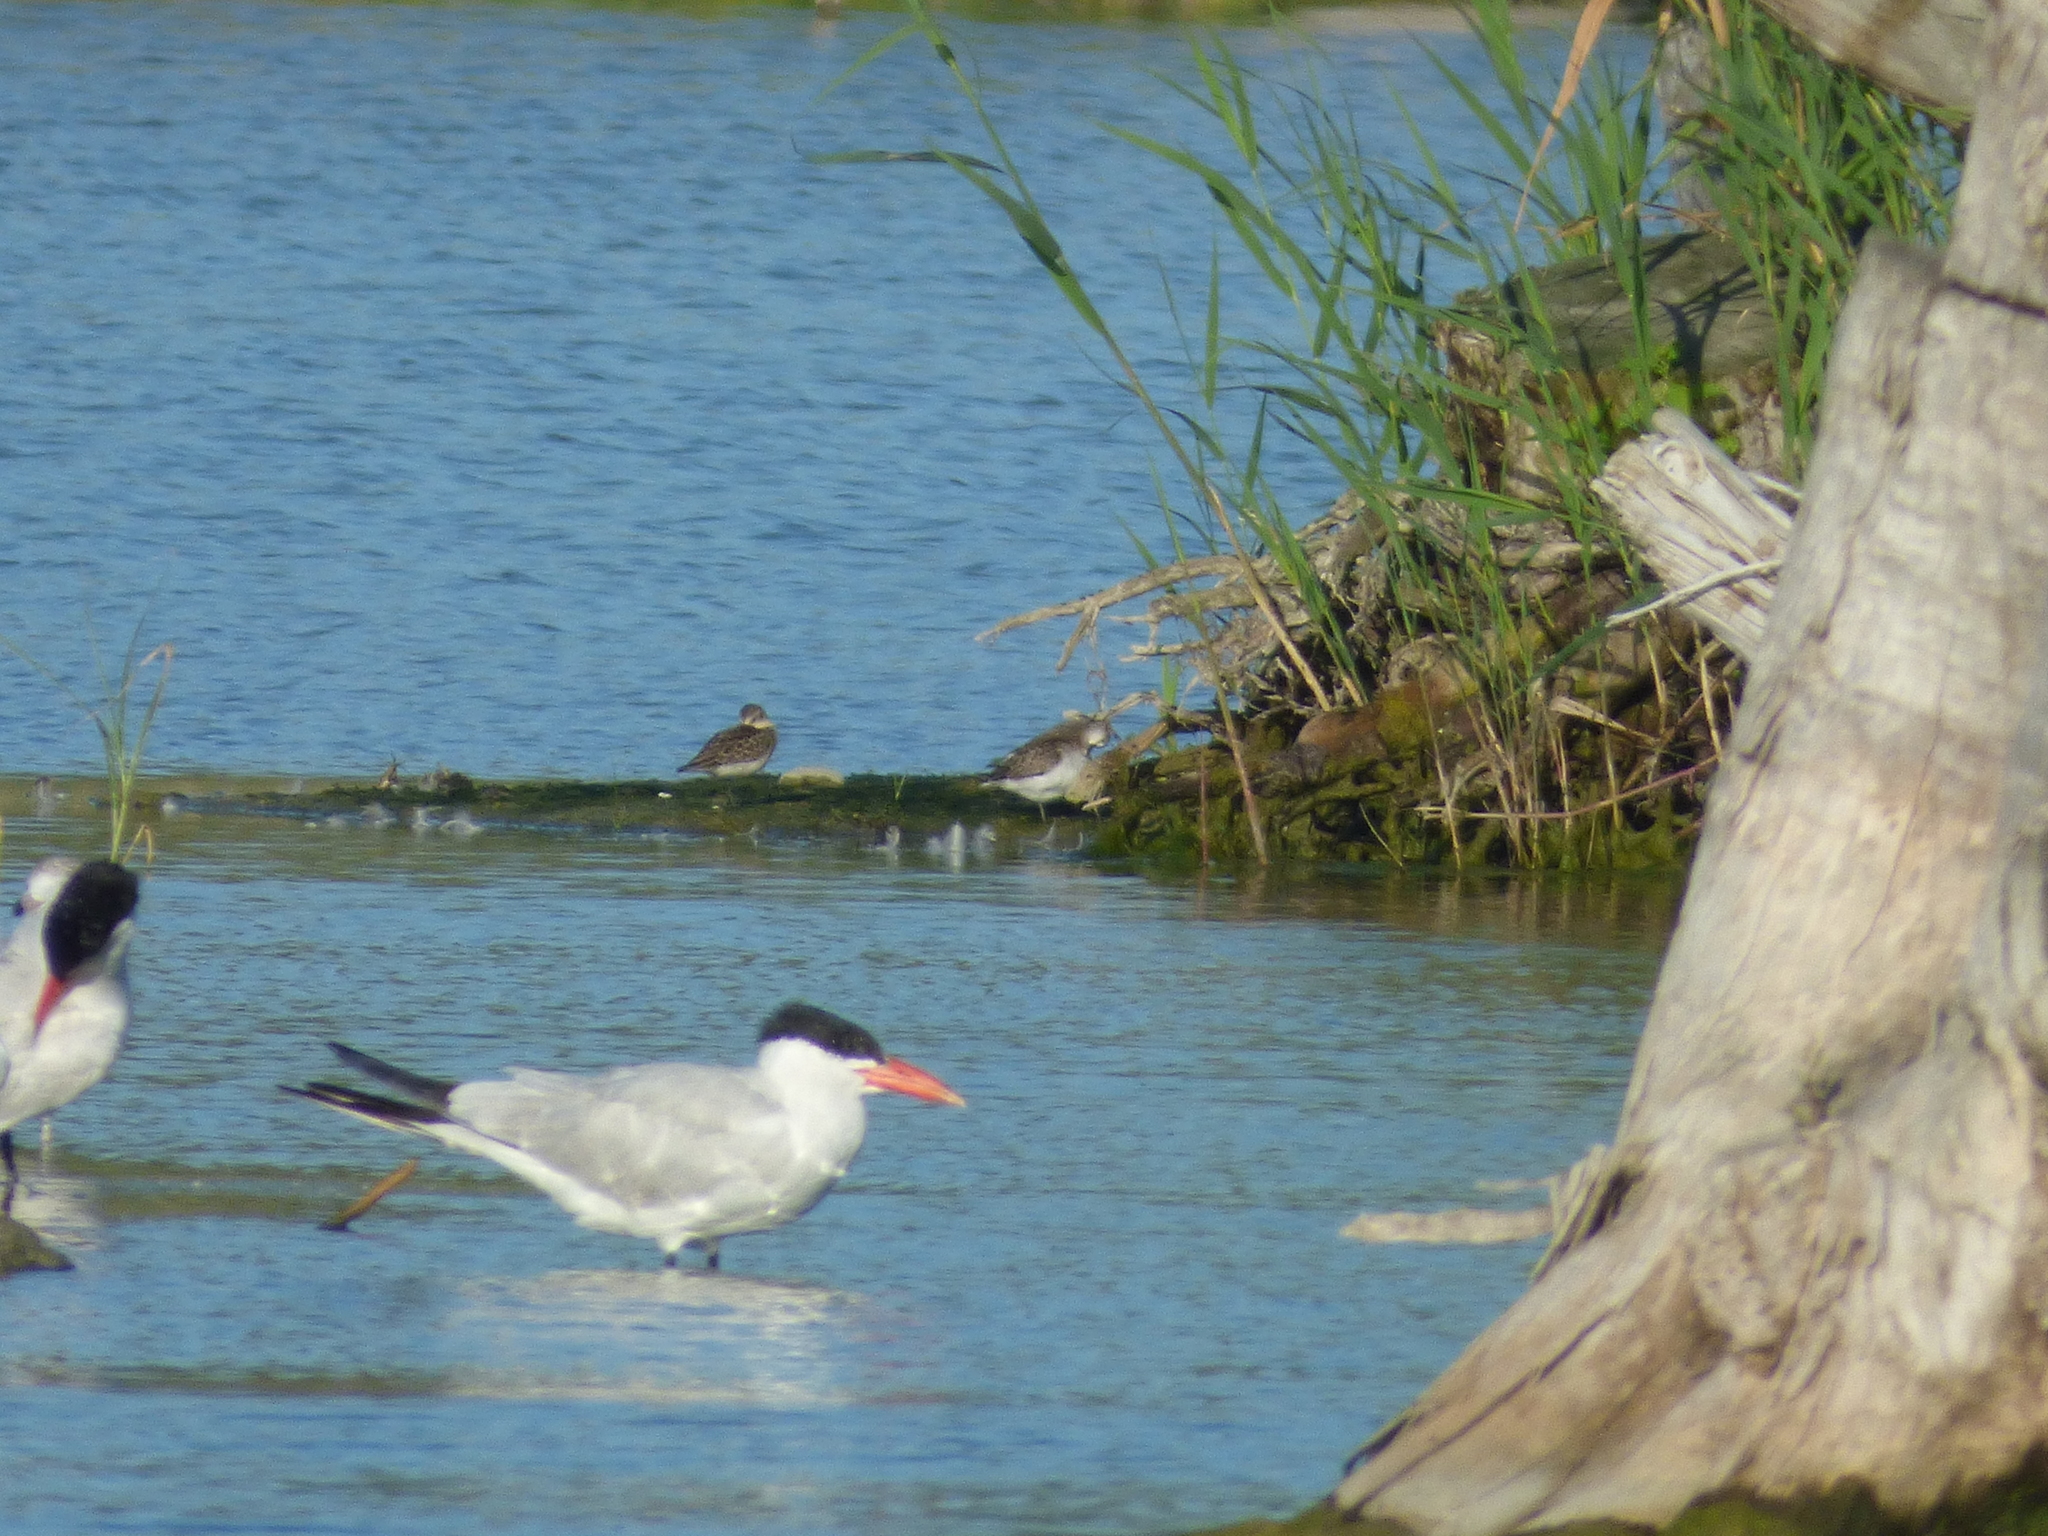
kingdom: Animalia
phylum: Chordata
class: Aves
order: Charadriiformes
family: Laridae
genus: Hydroprogne
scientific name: Hydroprogne caspia
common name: Caspian tern
